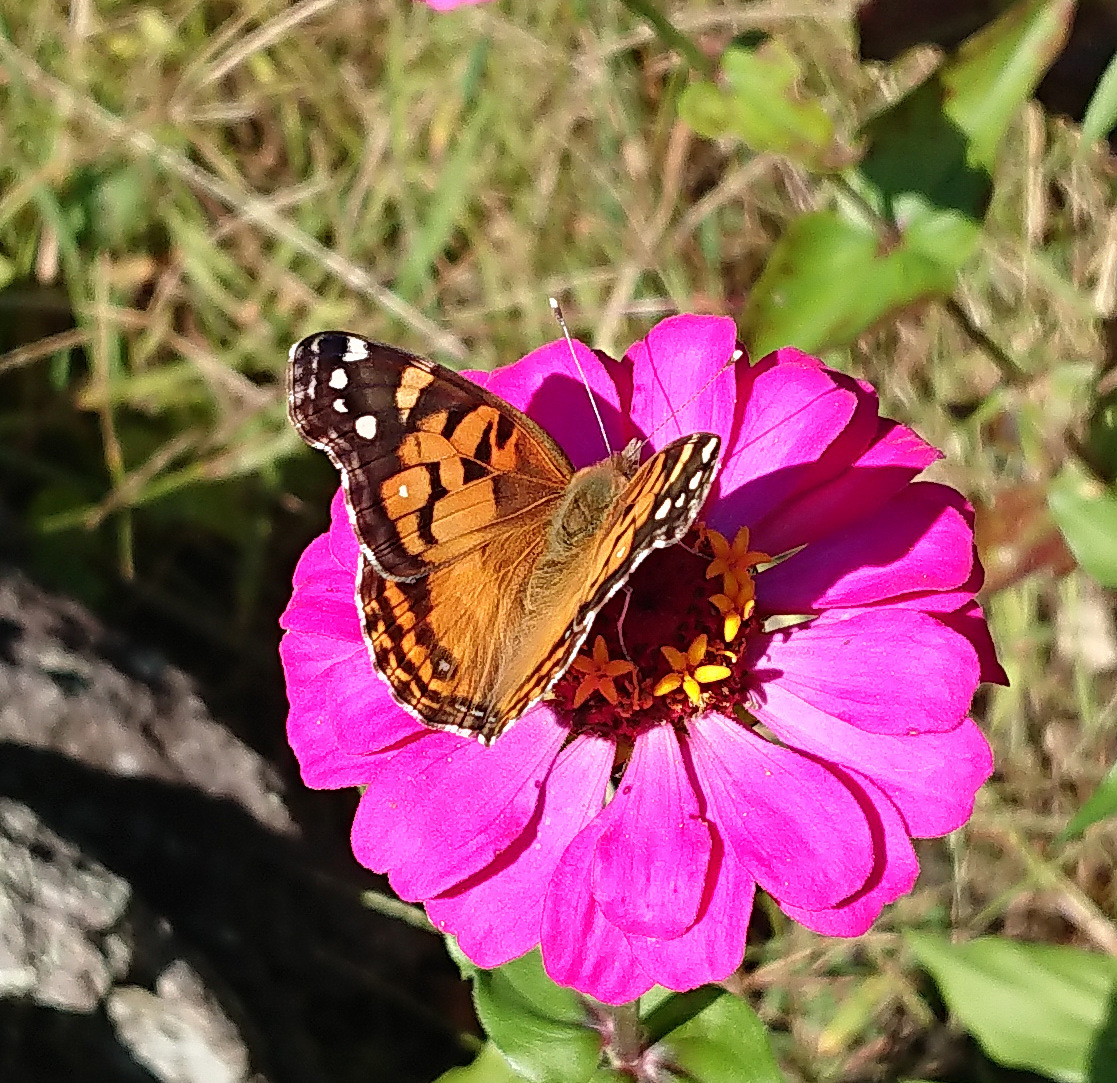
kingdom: Animalia
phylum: Arthropoda
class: Insecta
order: Lepidoptera
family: Nymphalidae
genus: Vanessa
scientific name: Vanessa virginiensis
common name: American lady
